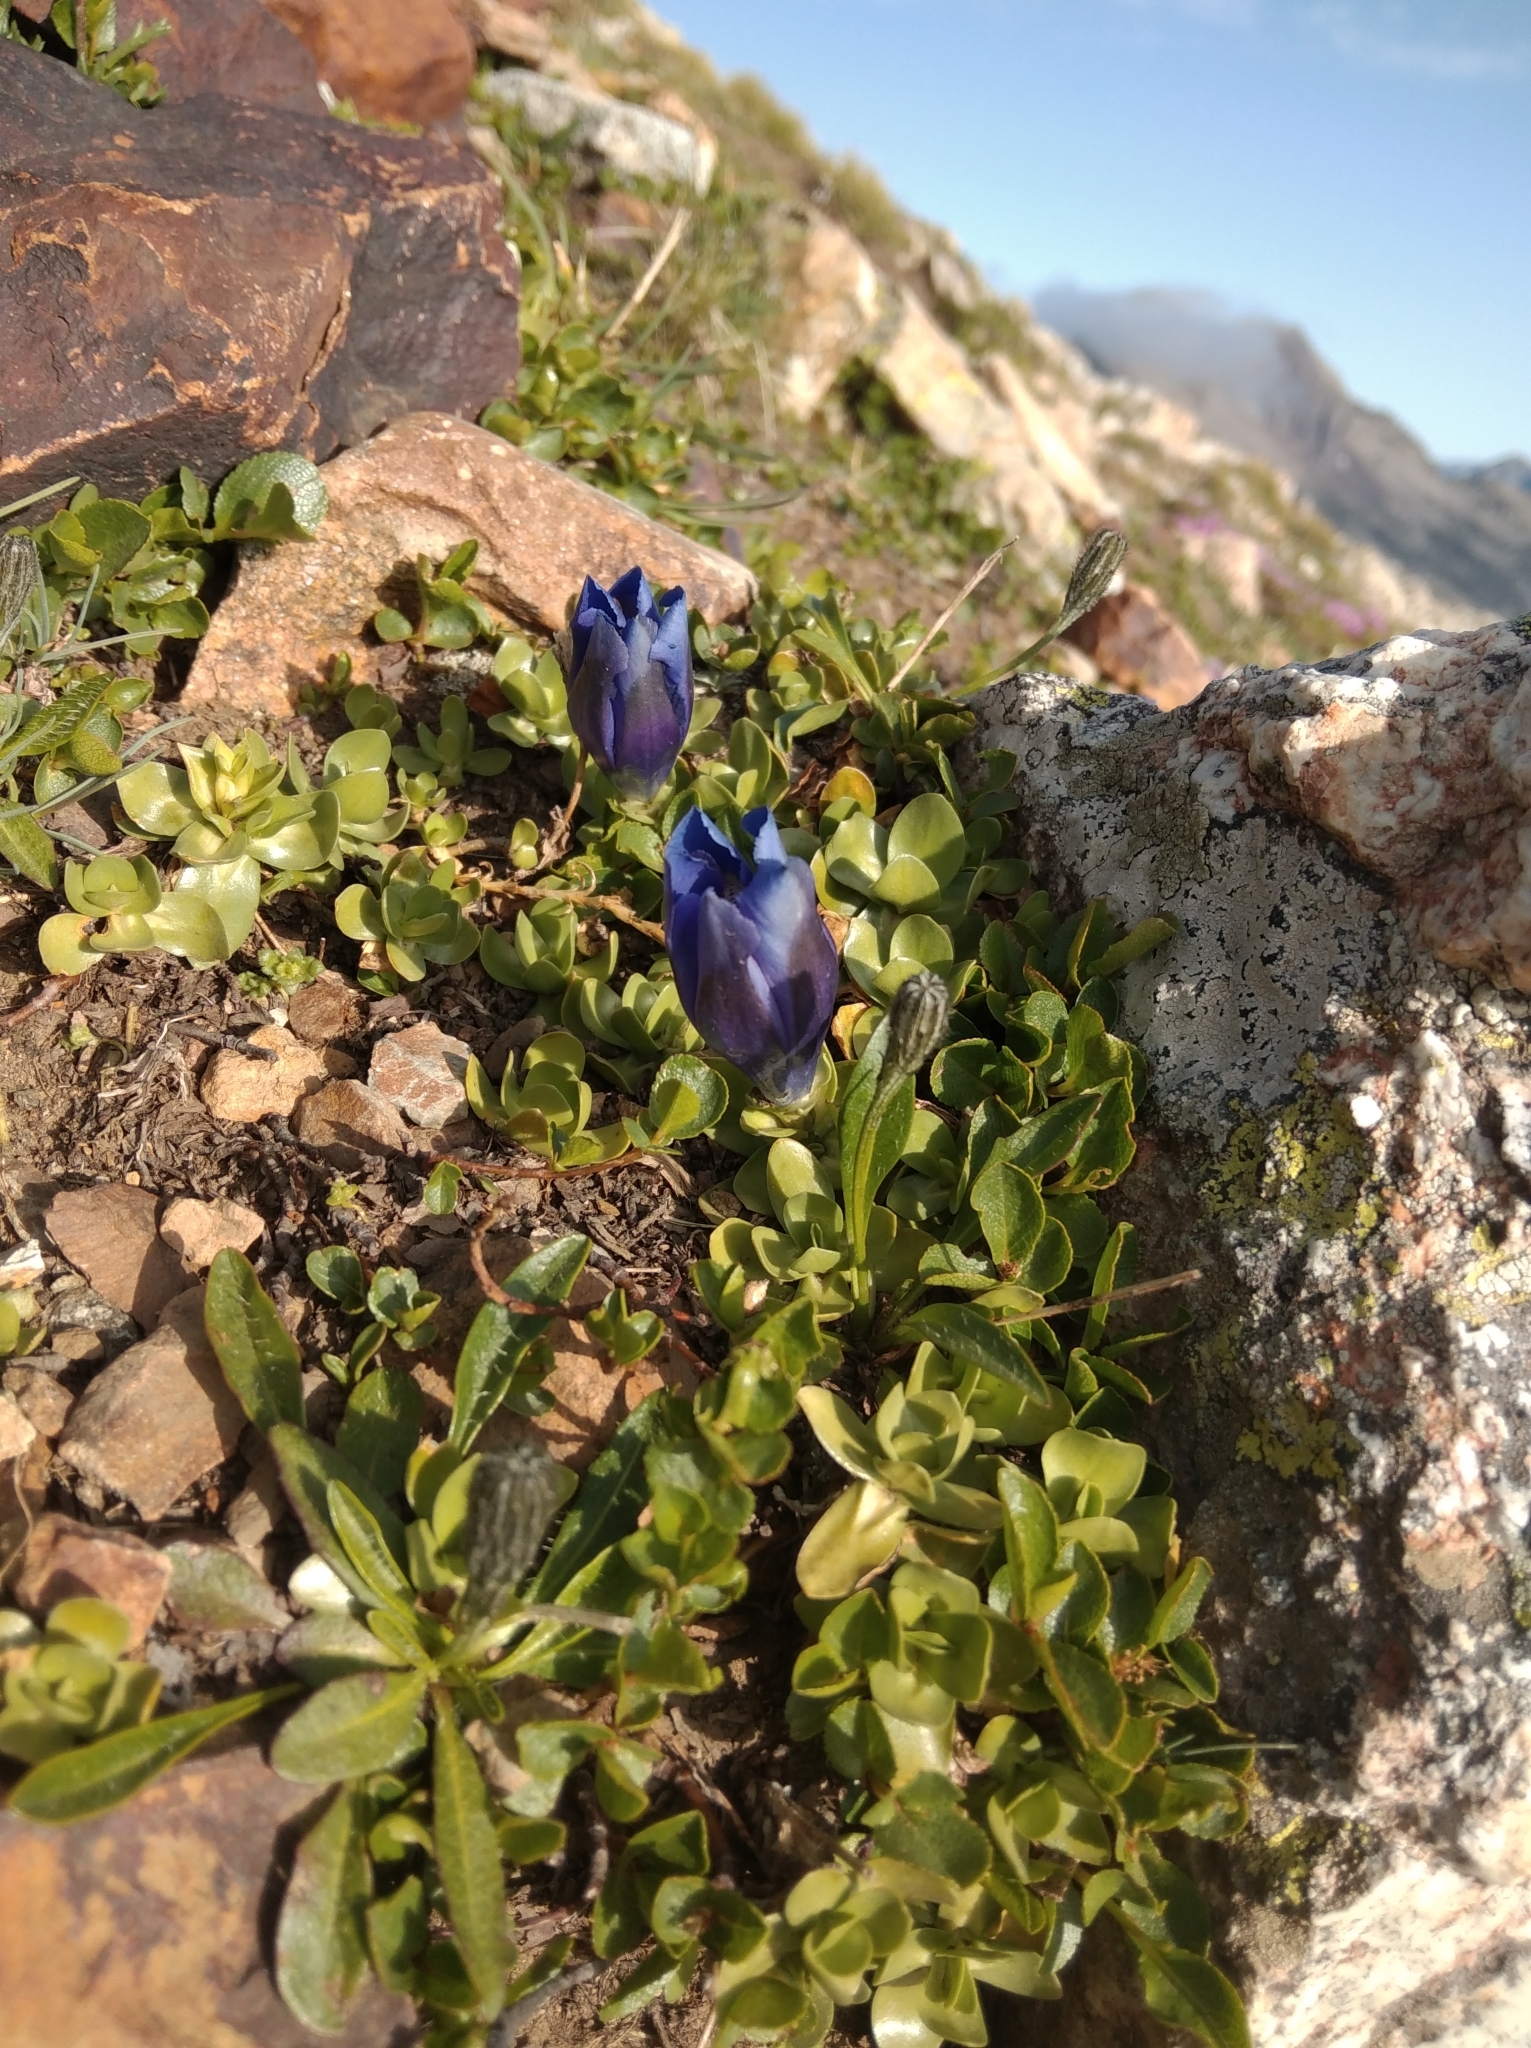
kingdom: Plantae
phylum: Tracheophyta
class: Magnoliopsida
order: Gentianales
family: Gentianaceae
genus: Gentiana
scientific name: Gentiana alpina
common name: Southern gentian
